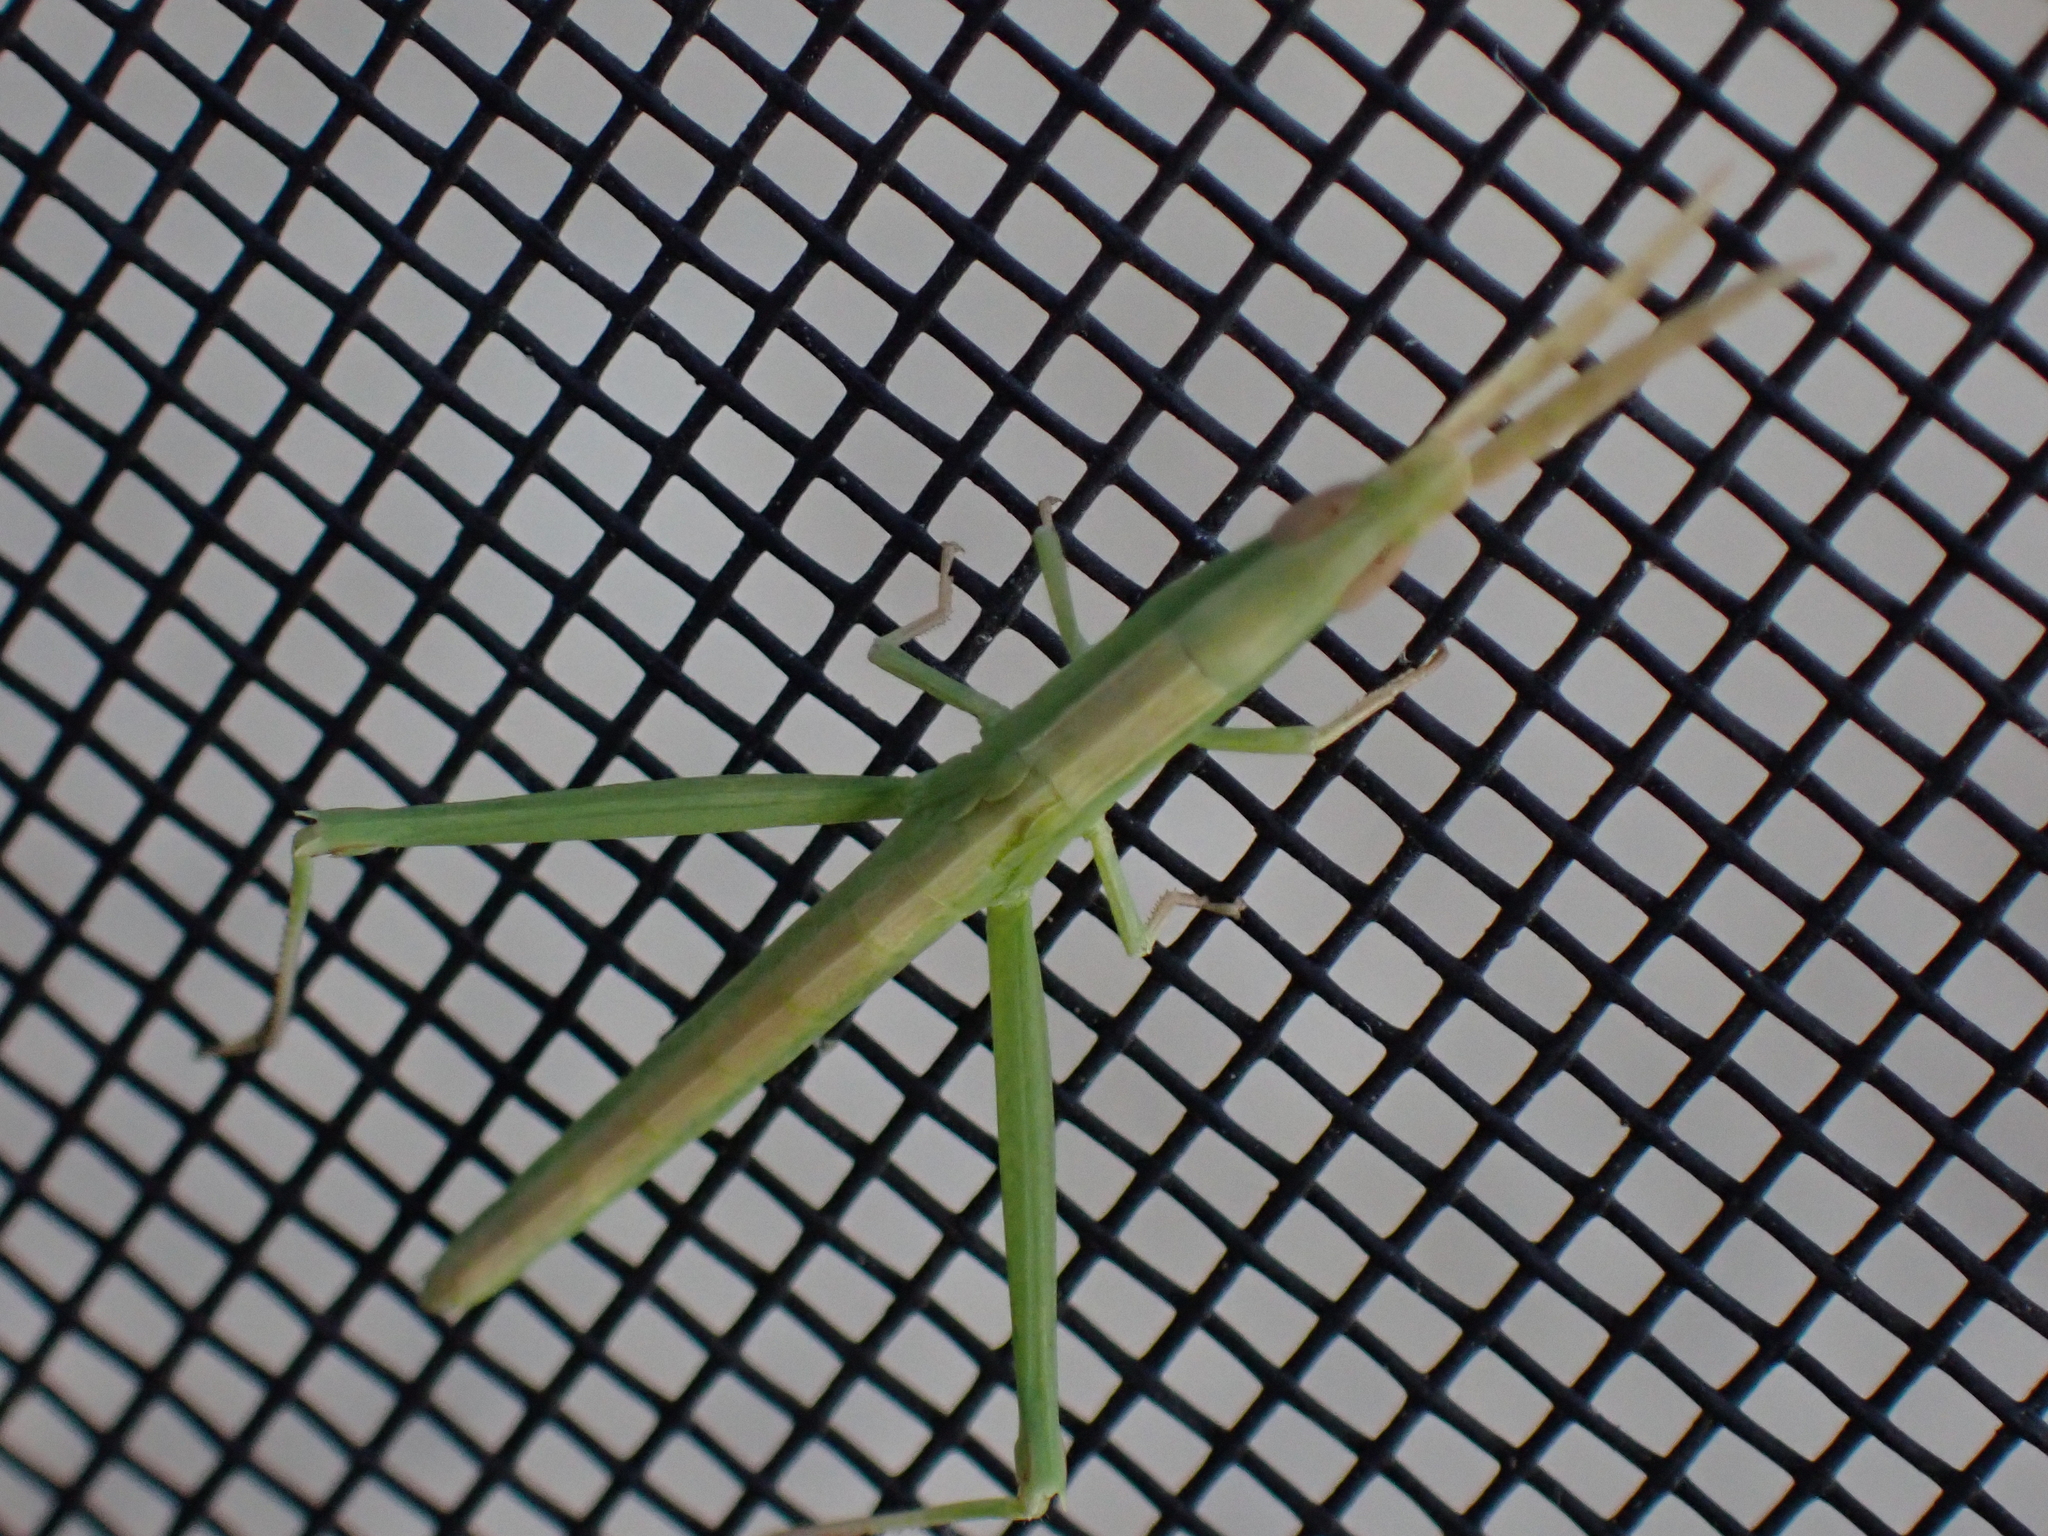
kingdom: Animalia
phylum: Arthropoda
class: Insecta
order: Orthoptera
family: Acrididae
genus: Achurum
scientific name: Achurum carinatum
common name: Long-headed toothpick grasshopper
